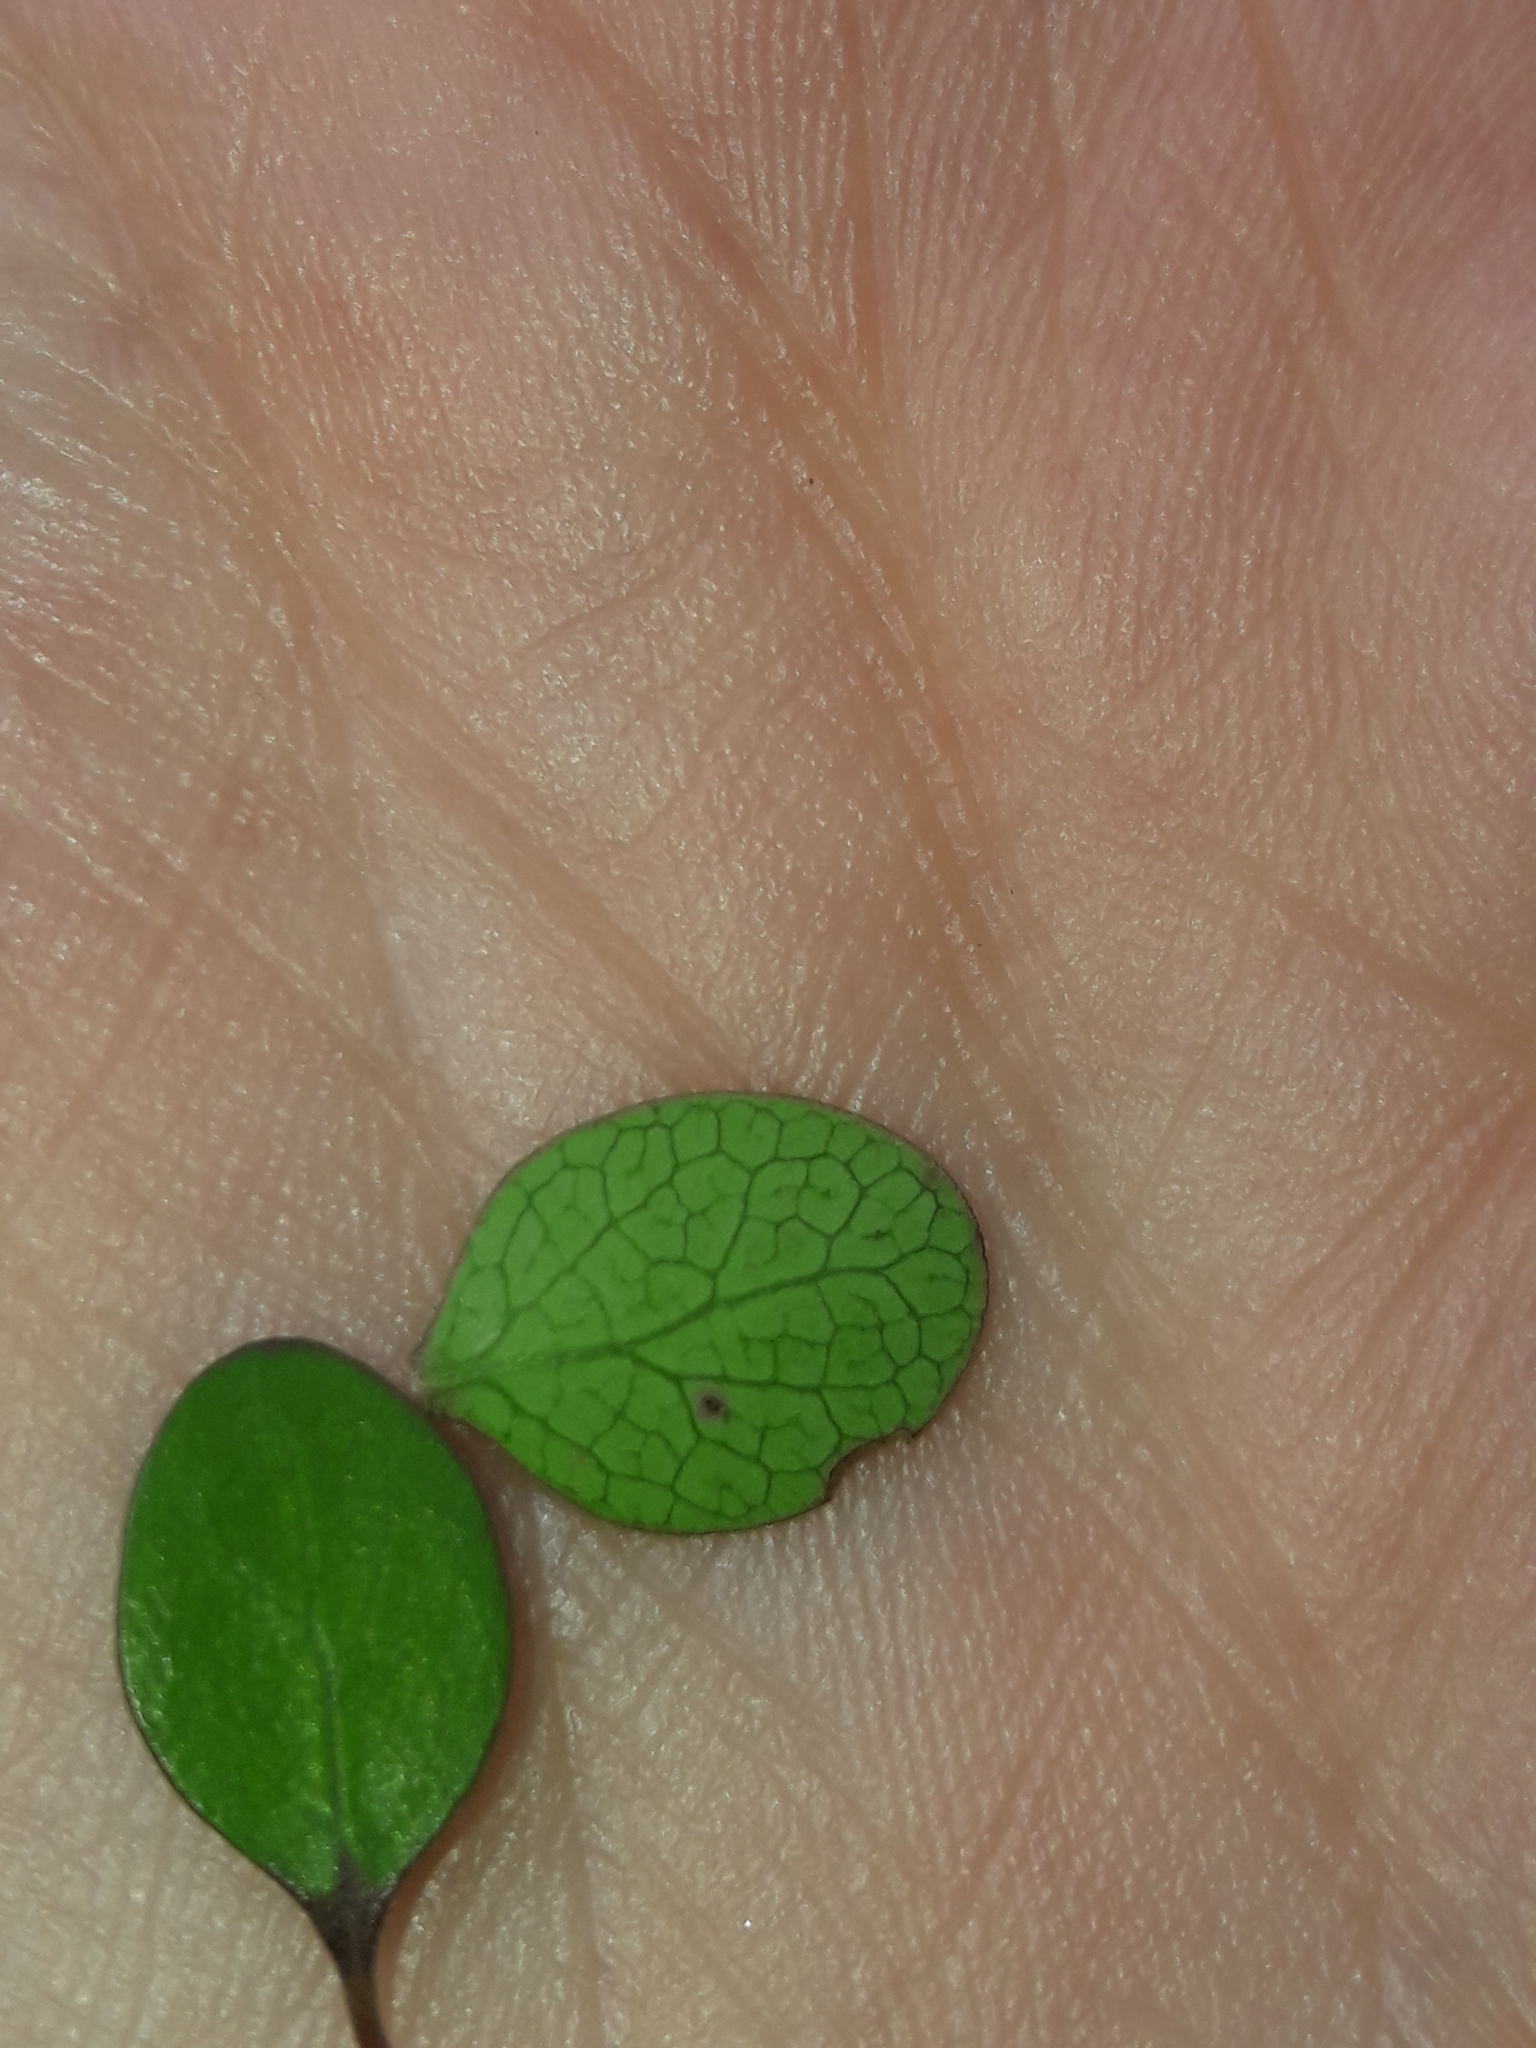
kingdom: Plantae
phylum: Tracheophyta
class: Magnoliopsida
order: Oxalidales
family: Elaeocarpaceae
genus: Aristotelia
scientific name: Aristotelia fruticosa
